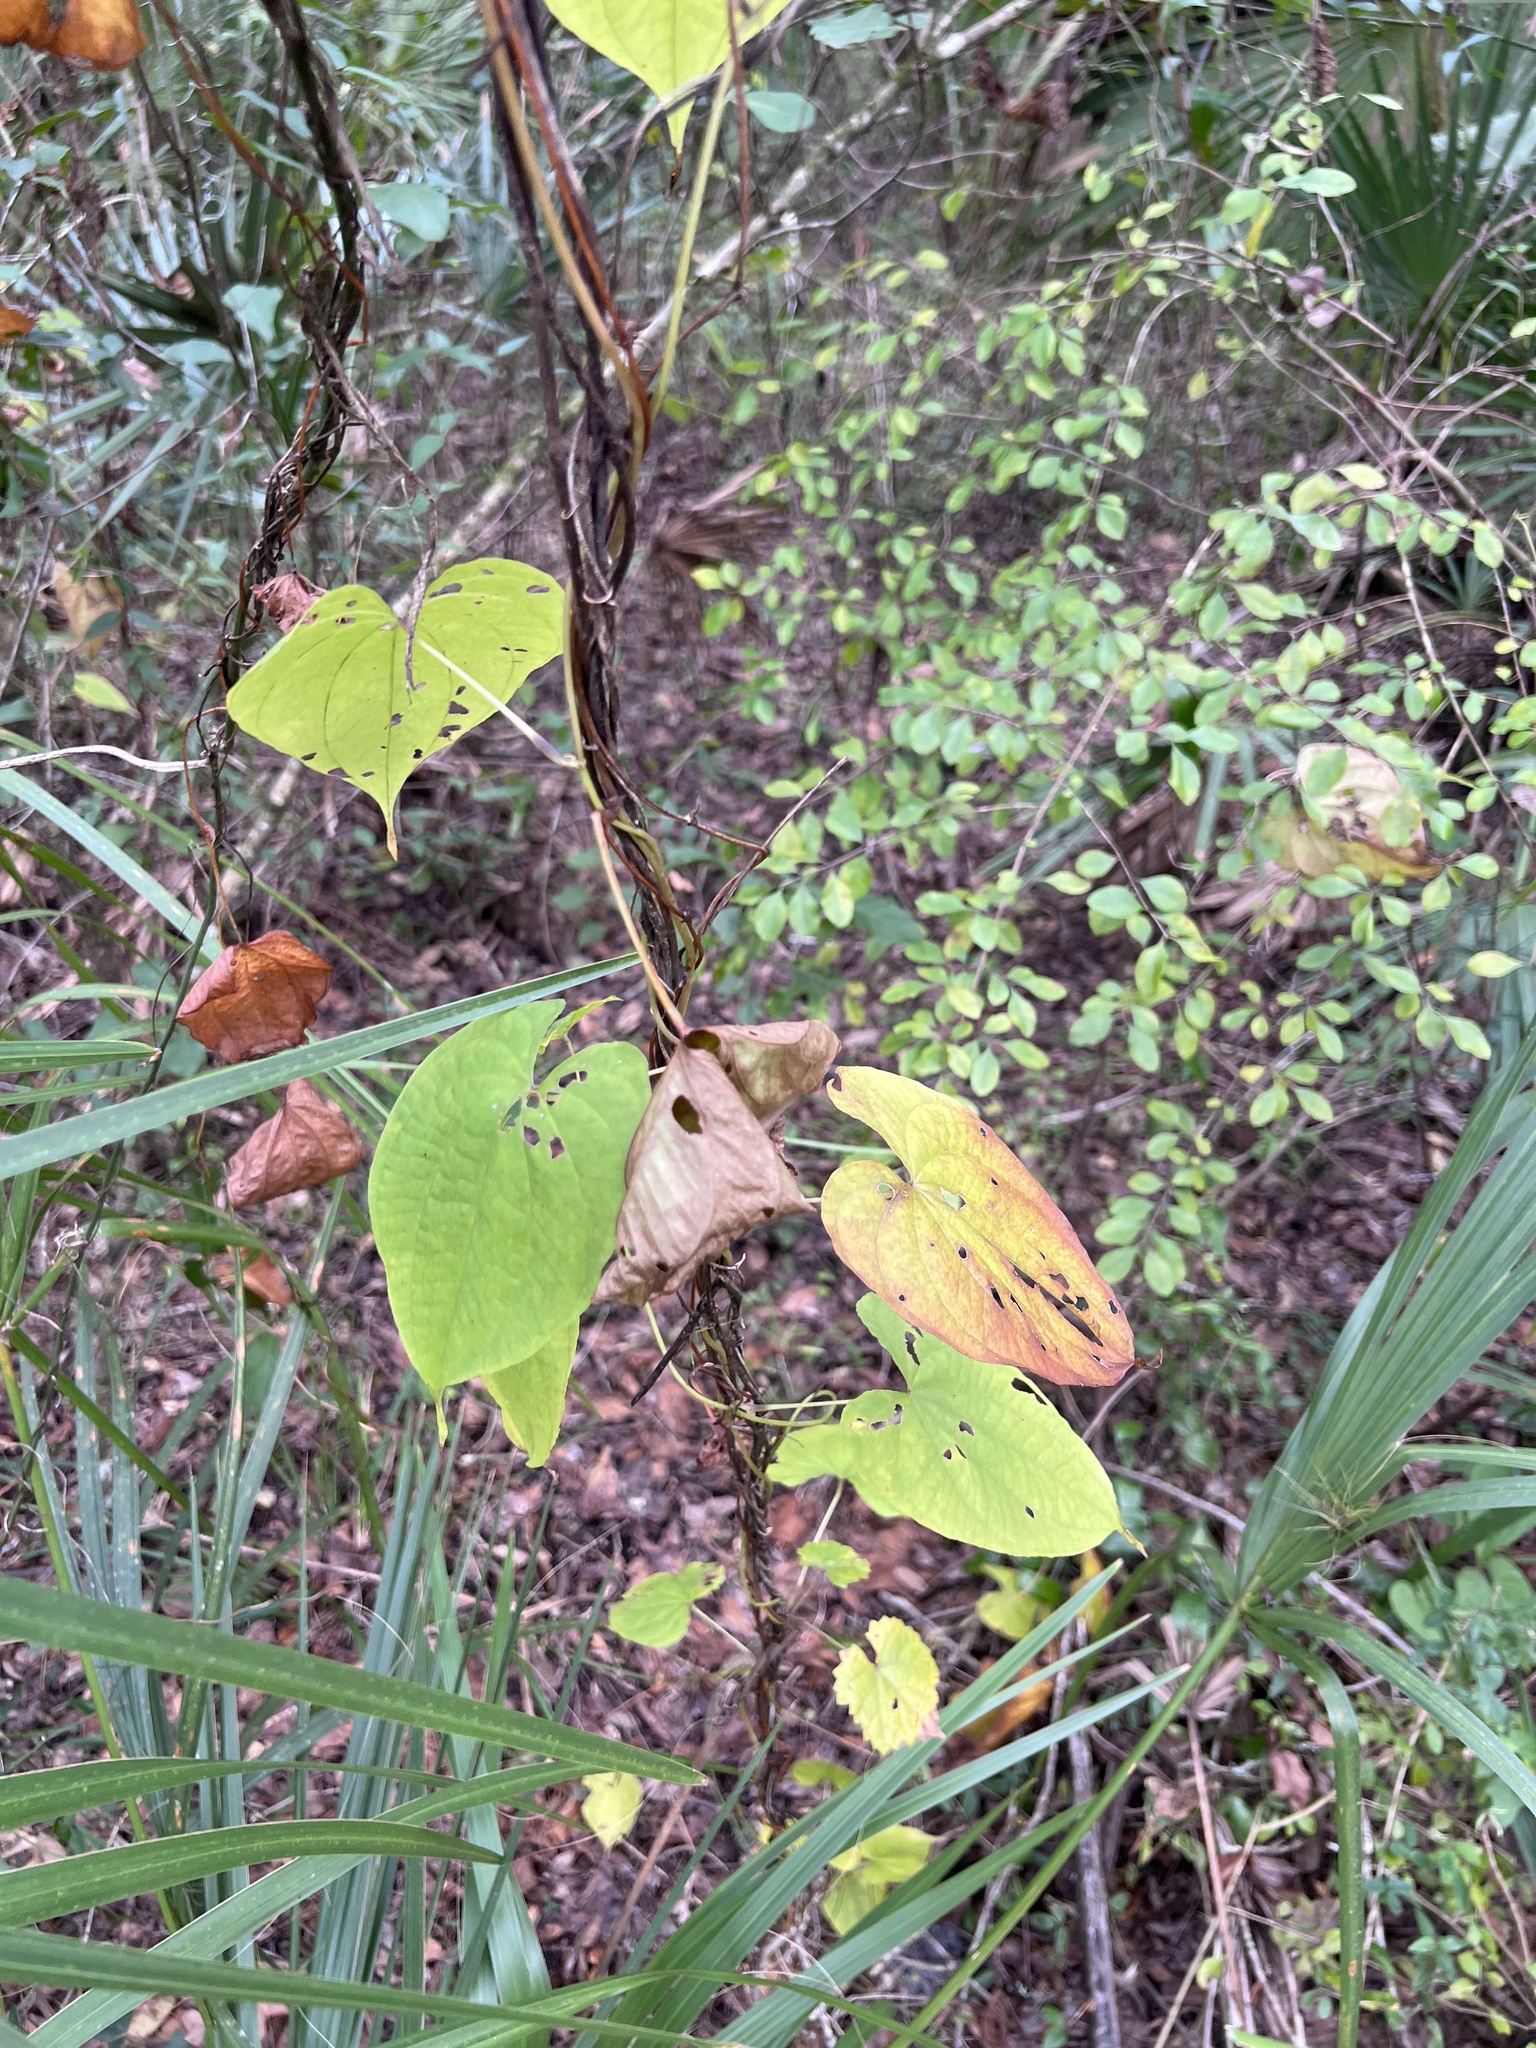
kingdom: Plantae
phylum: Tracheophyta
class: Liliopsida
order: Dioscoreales
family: Dioscoreaceae
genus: Dioscorea
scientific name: Dioscorea bulbifera
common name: Air yam
